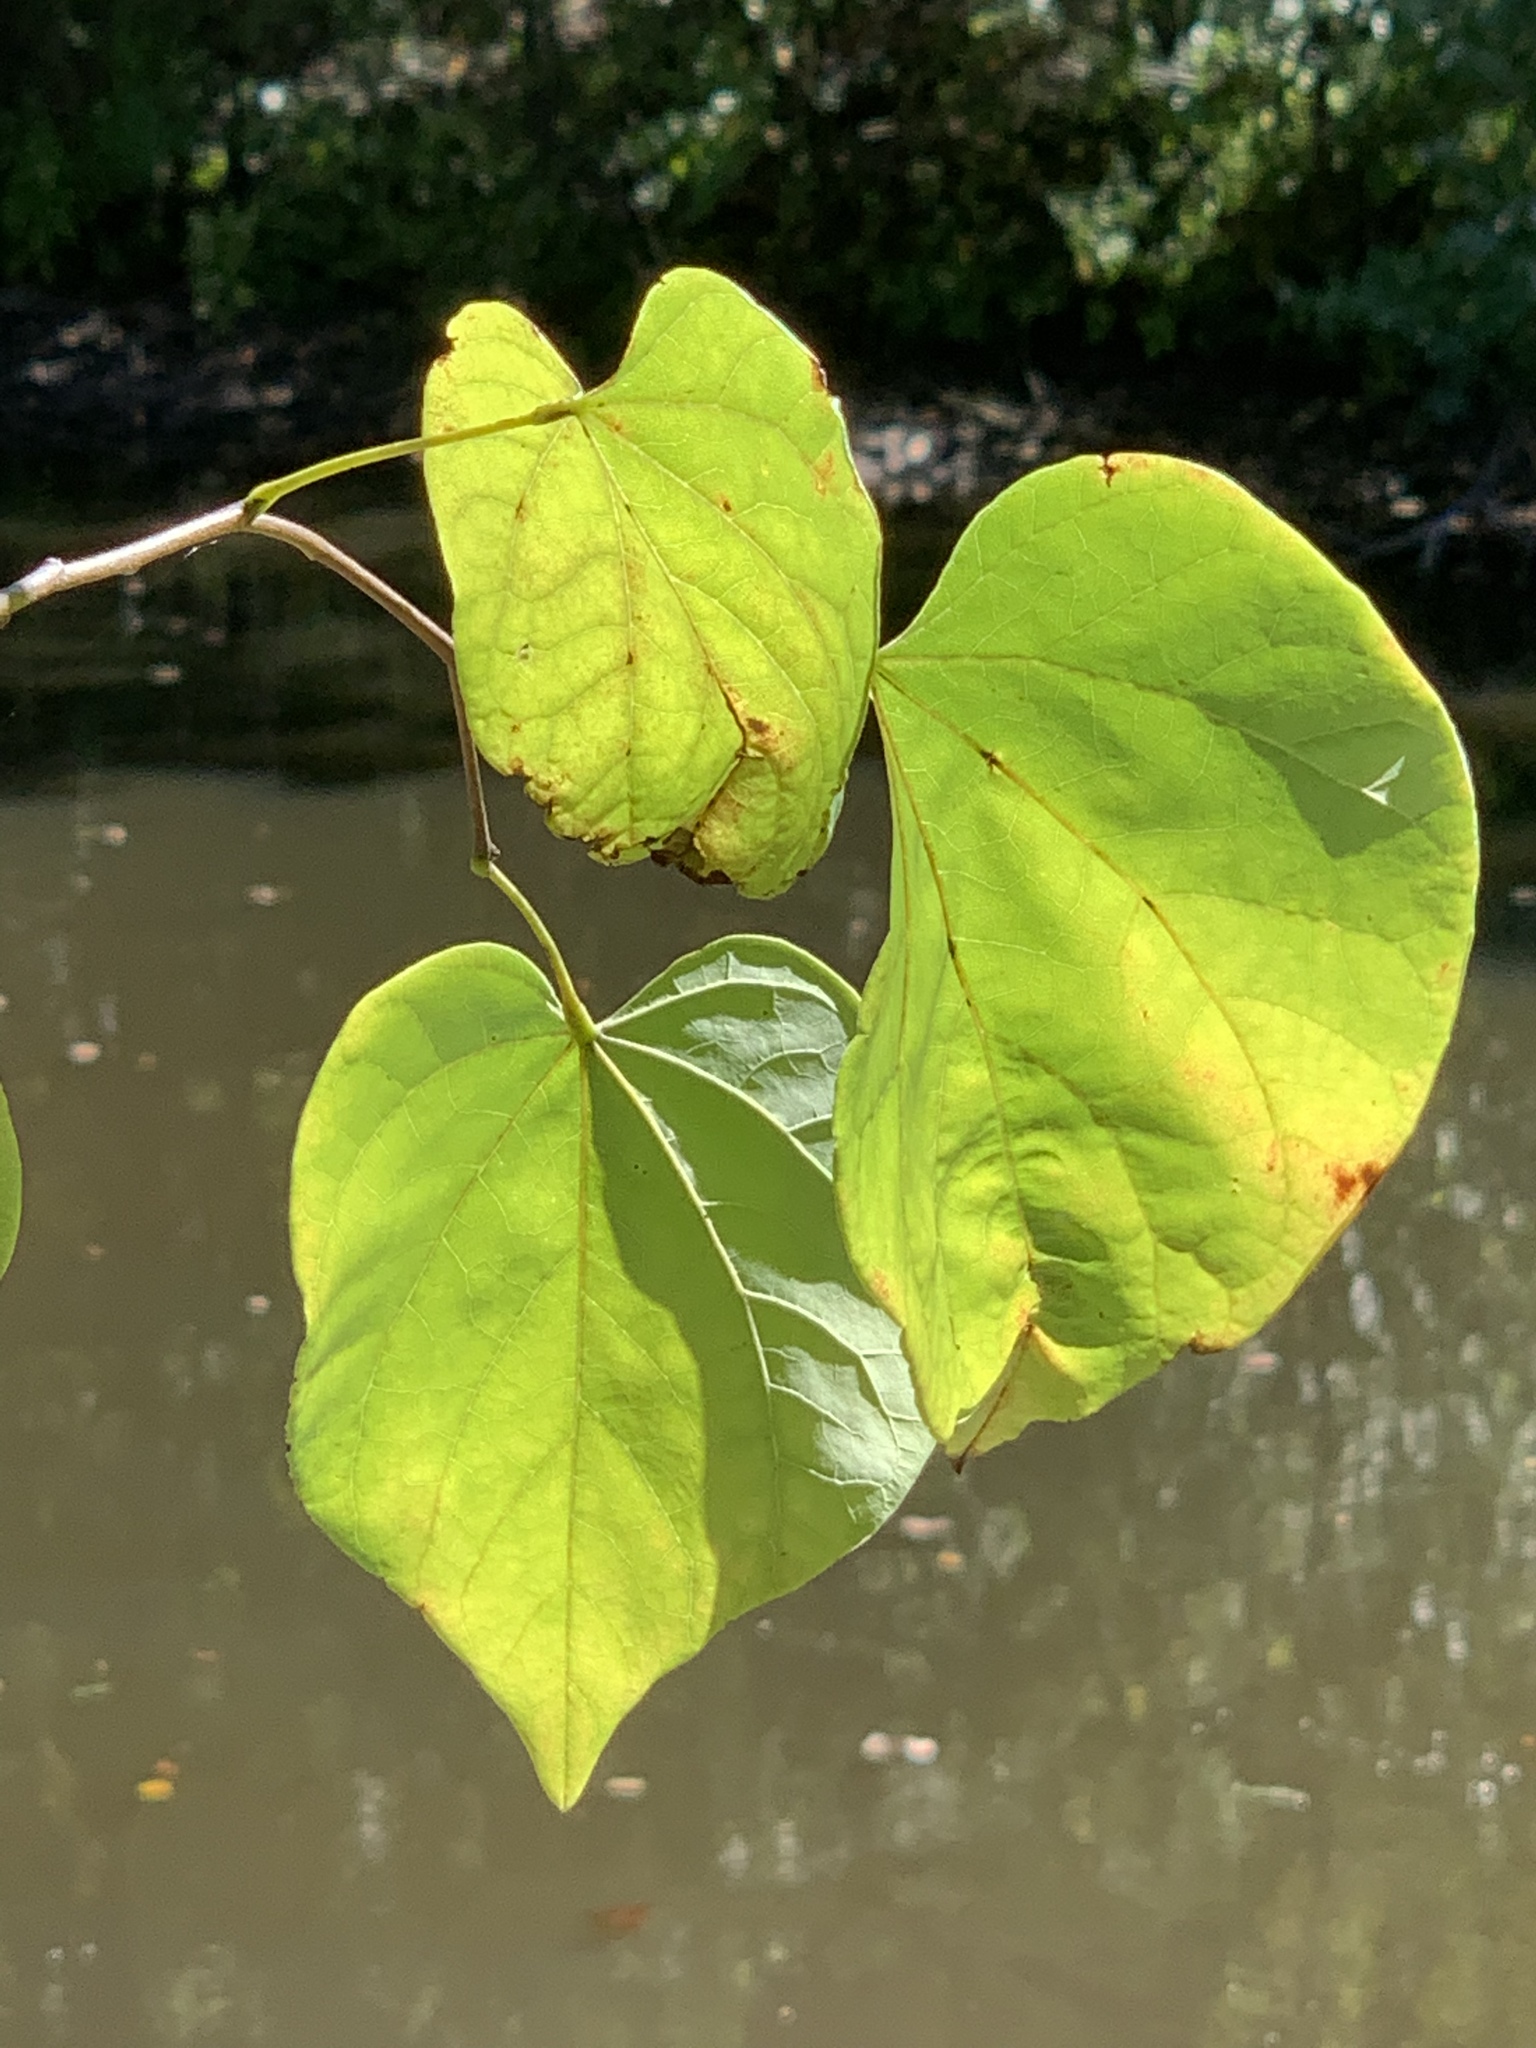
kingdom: Plantae
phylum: Tracheophyta
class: Magnoliopsida
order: Fabales
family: Fabaceae
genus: Cercis
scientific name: Cercis canadensis
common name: Eastern redbud
